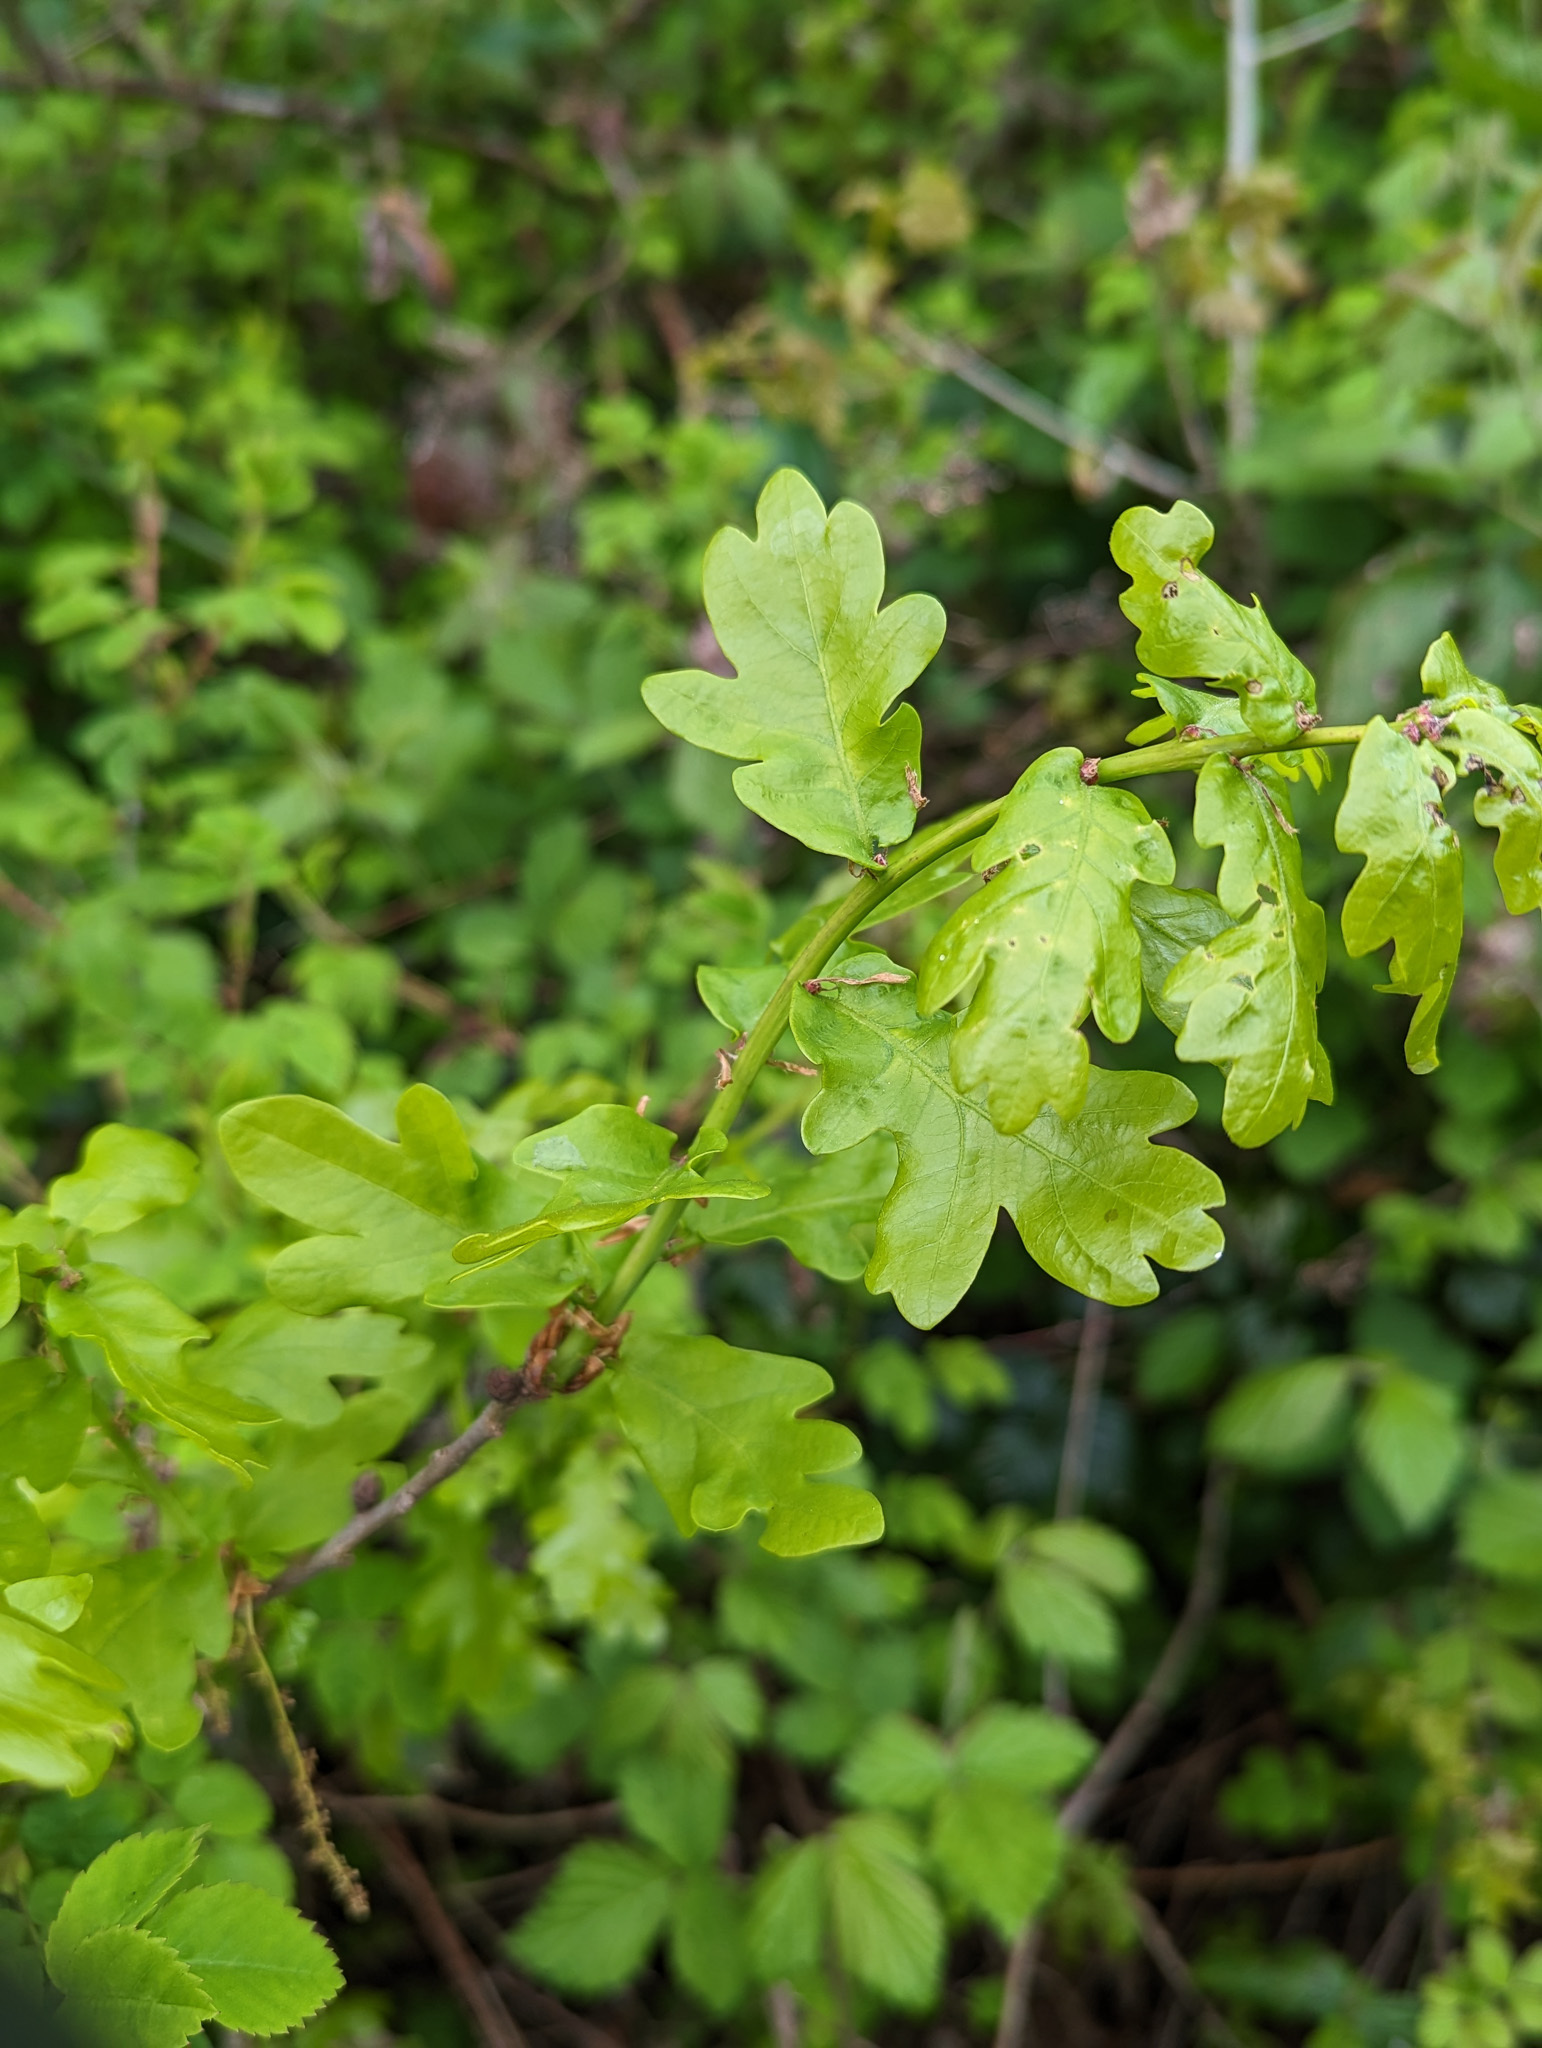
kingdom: Plantae
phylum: Tracheophyta
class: Magnoliopsida
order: Fagales
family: Fagaceae
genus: Quercus
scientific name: Quercus robur
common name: Pedunculate oak
